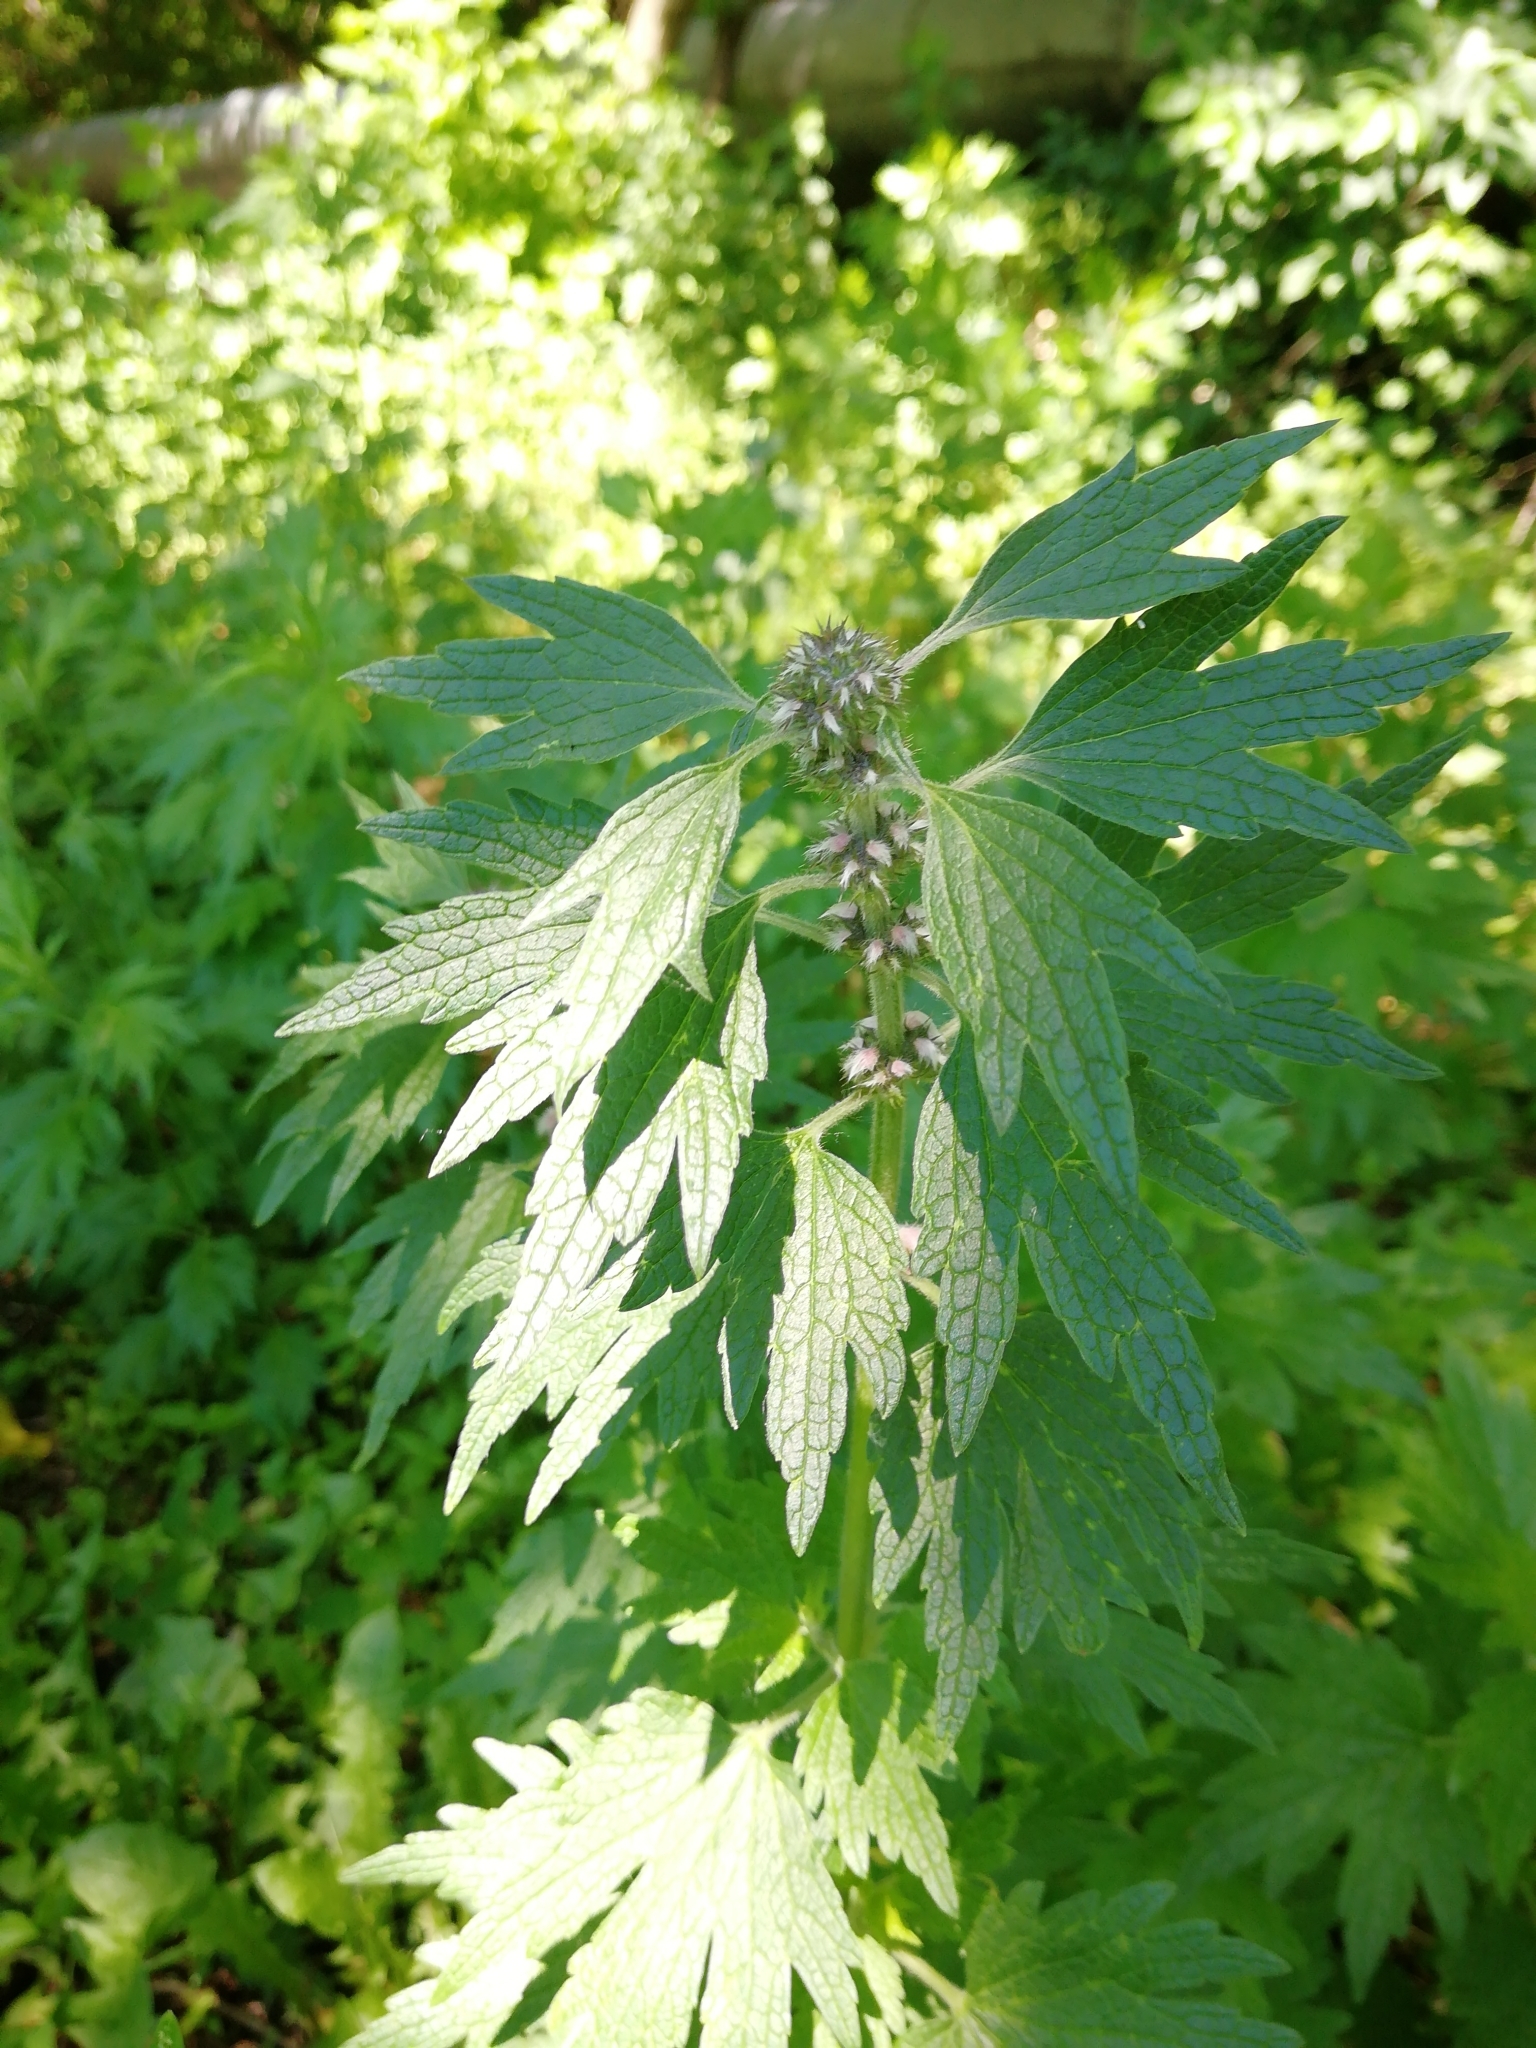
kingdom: Plantae
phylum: Tracheophyta
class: Magnoliopsida
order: Lamiales
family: Lamiaceae
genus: Leonurus
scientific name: Leonurus quinquelobatus
